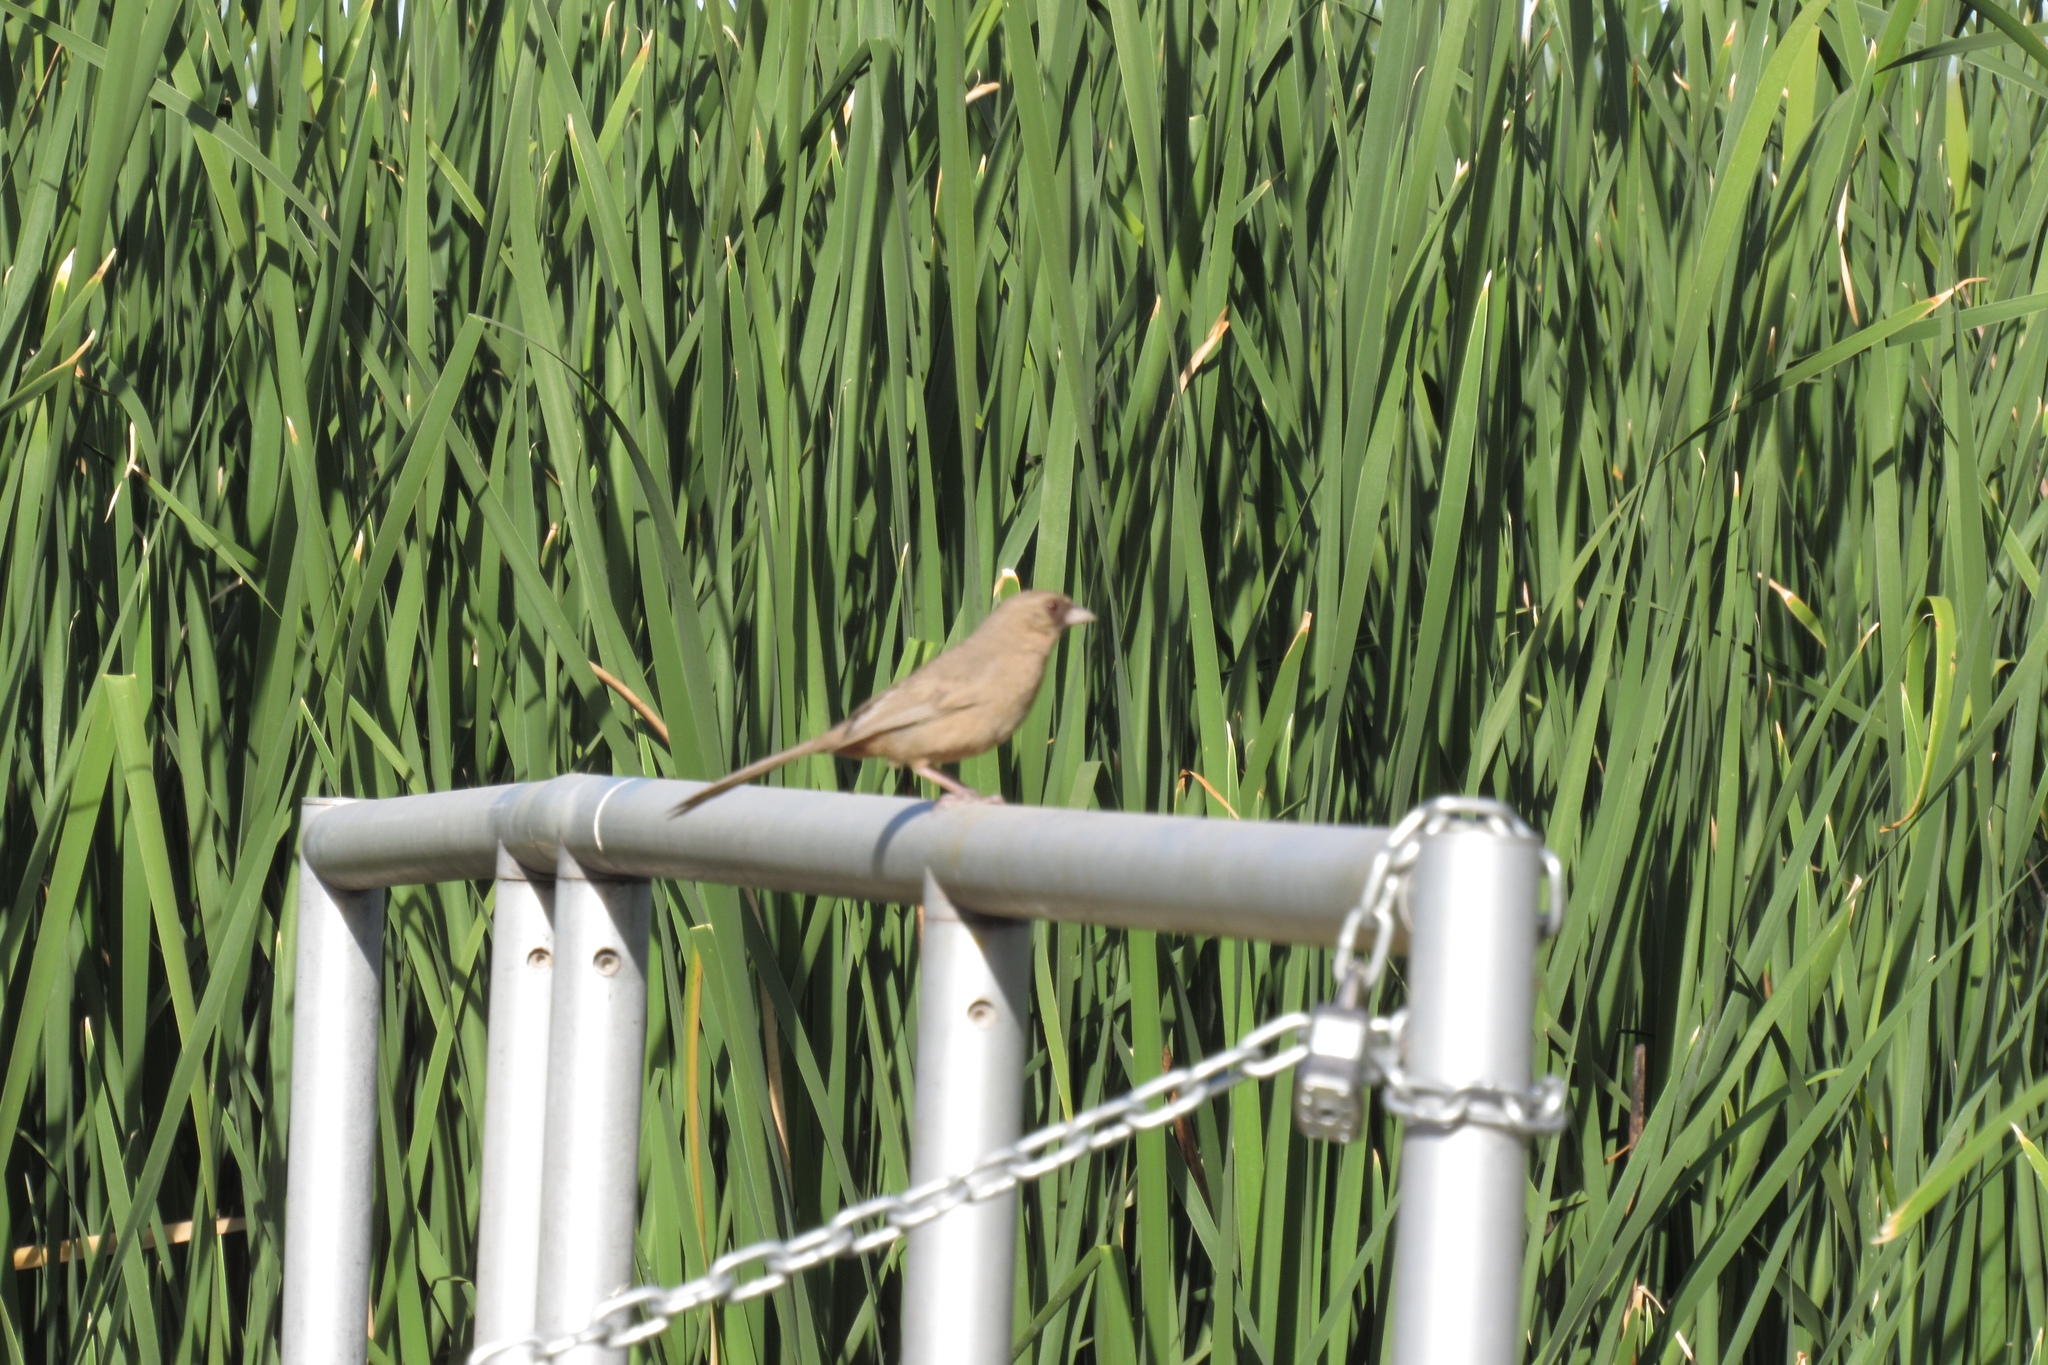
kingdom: Animalia
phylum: Chordata
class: Aves
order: Passeriformes
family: Passerellidae
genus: Melozone
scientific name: Melozone aberti
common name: Abert's towhee
